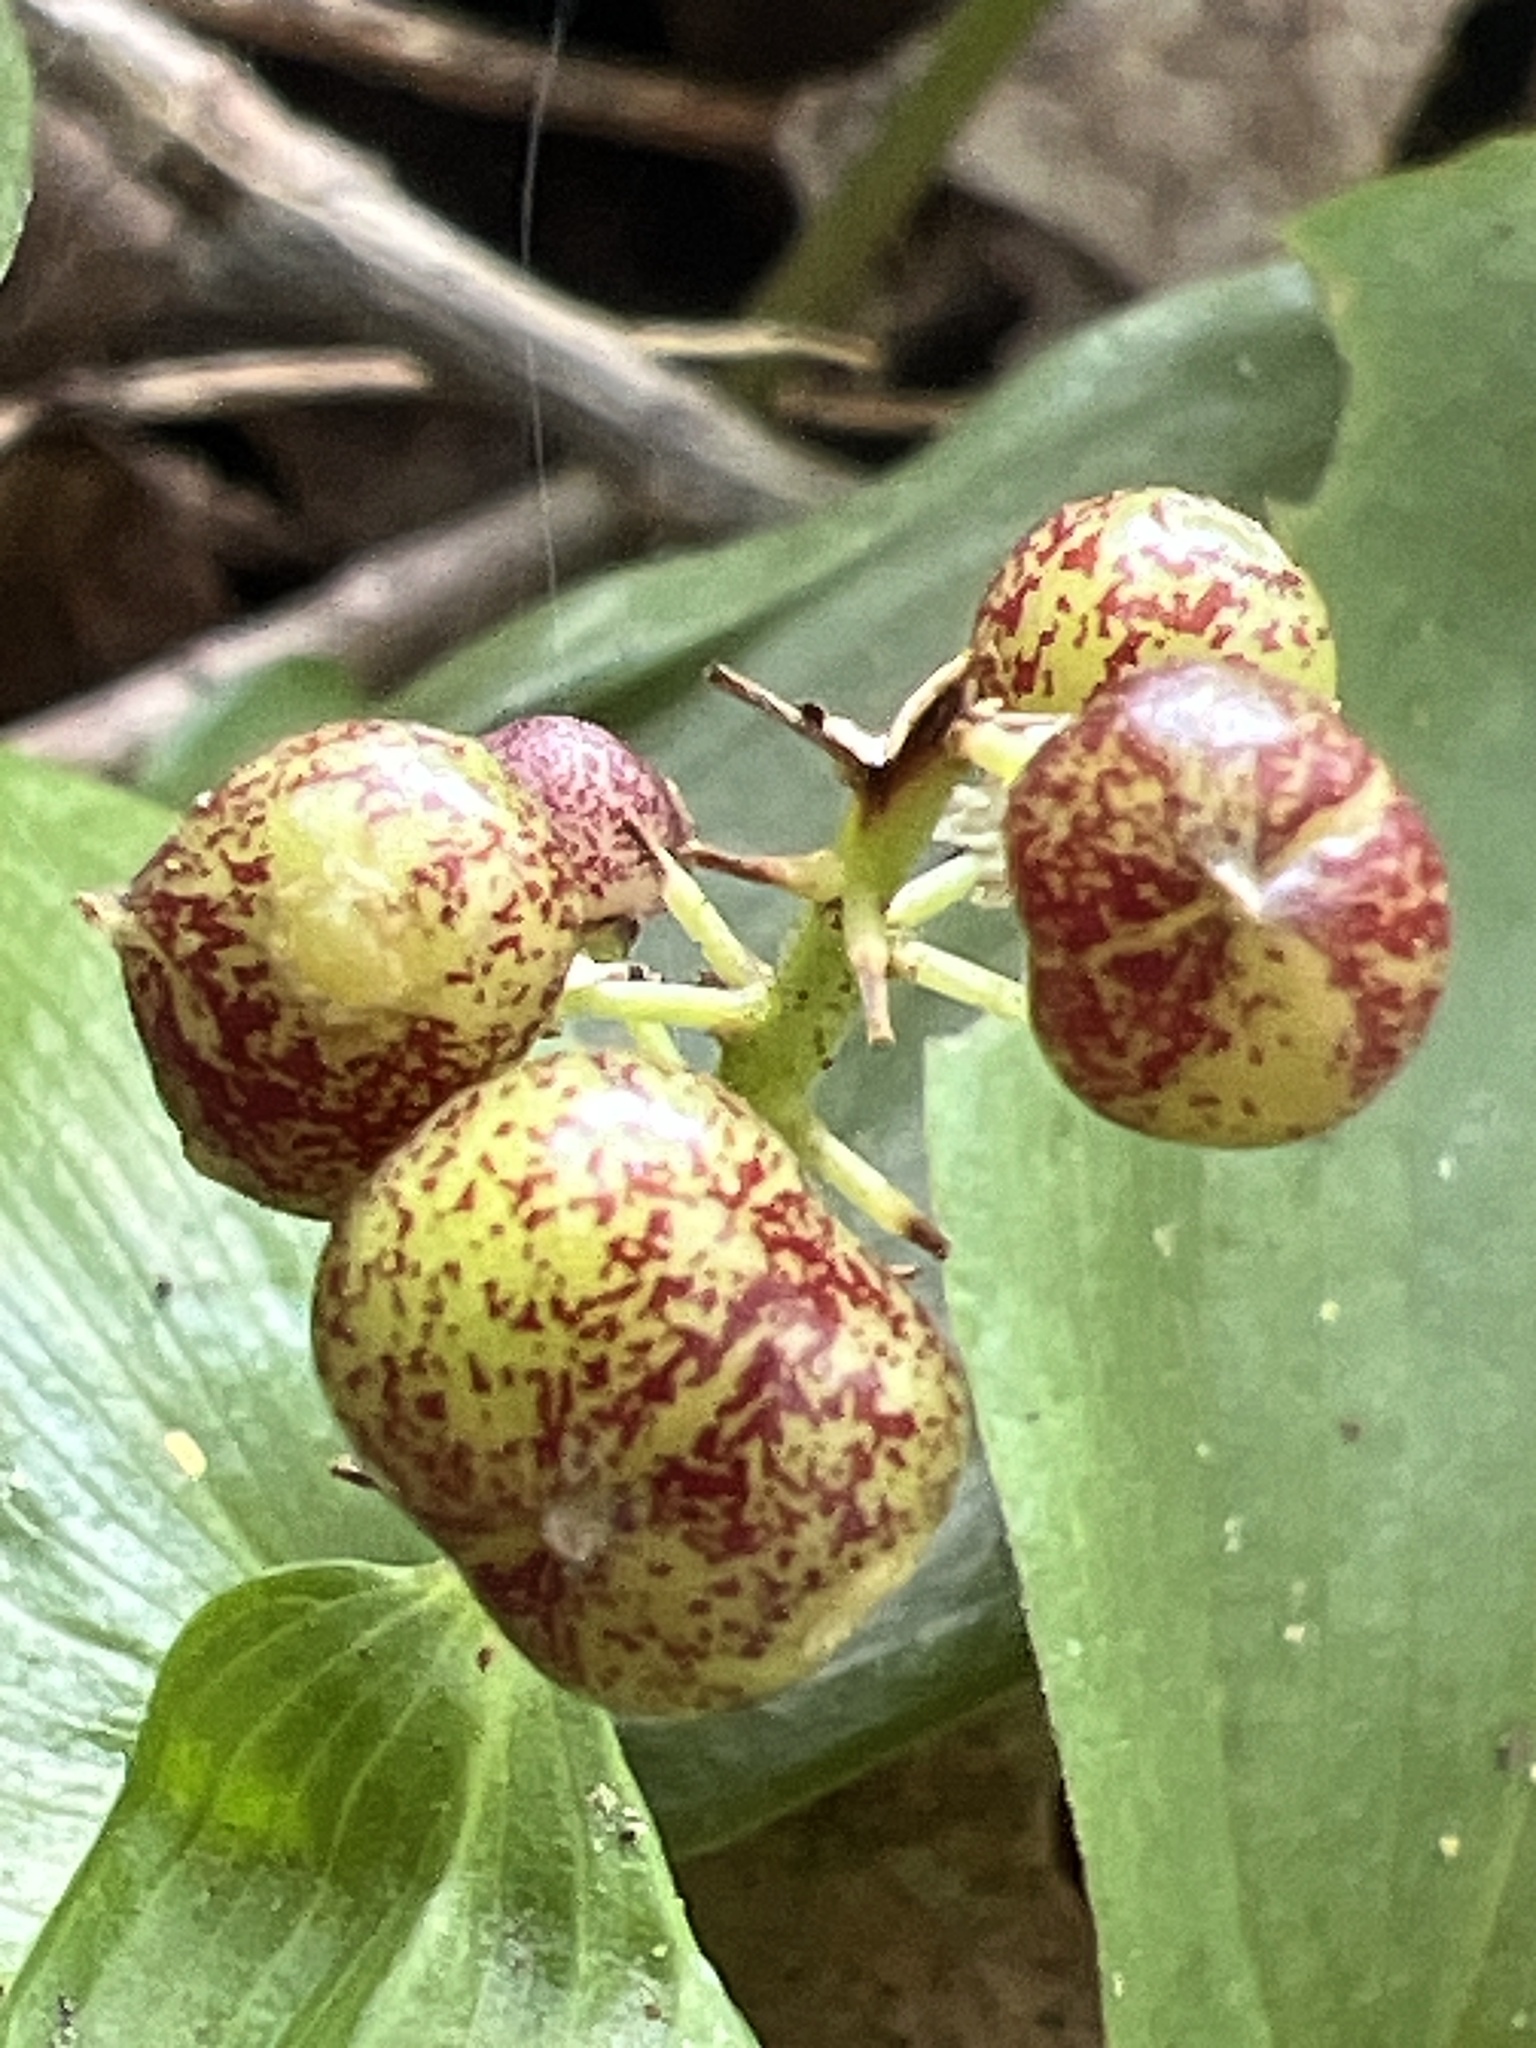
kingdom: Plantae
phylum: Tracheophyta
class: Liliopsida
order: Asparagales
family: Asparagaceae
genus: Maianthemum
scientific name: Maianthemum canadense
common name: False lily-of-the-valley
